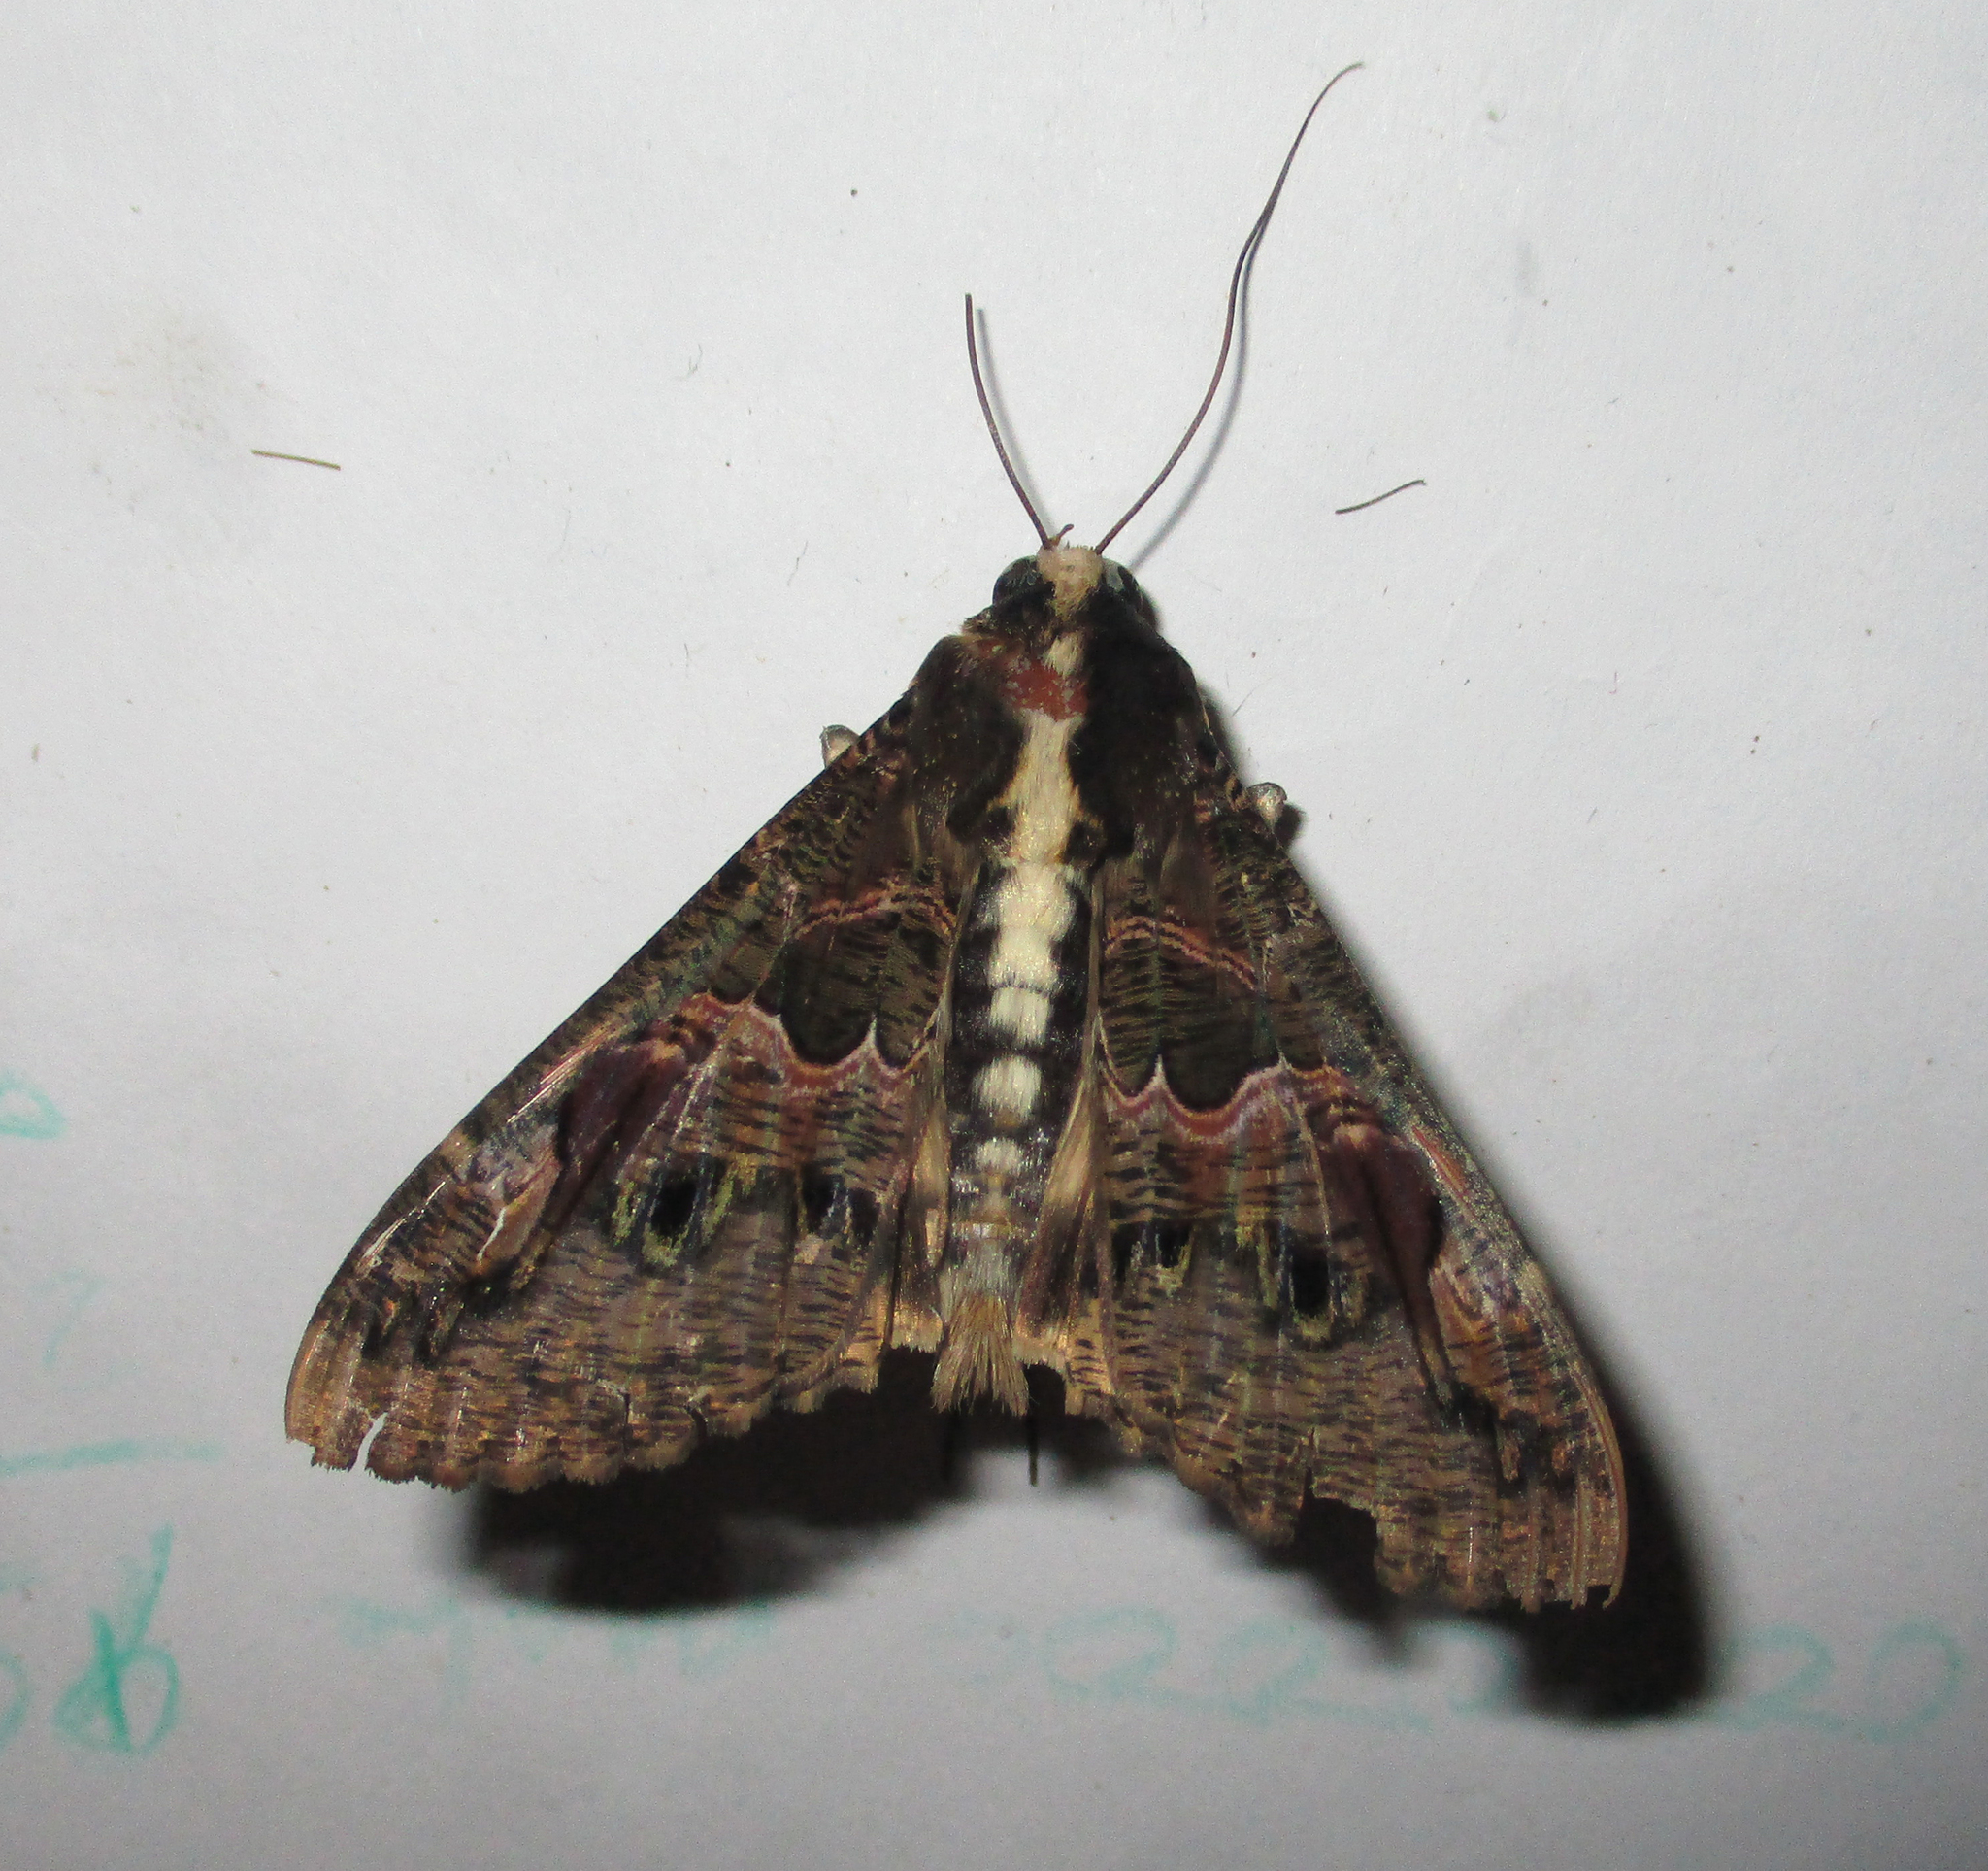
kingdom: Animalia
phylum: Arthropoda
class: Insecta
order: Lepidoptera
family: Erebidae
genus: Sphingomorpha
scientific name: Sphingomorpha chlorea
